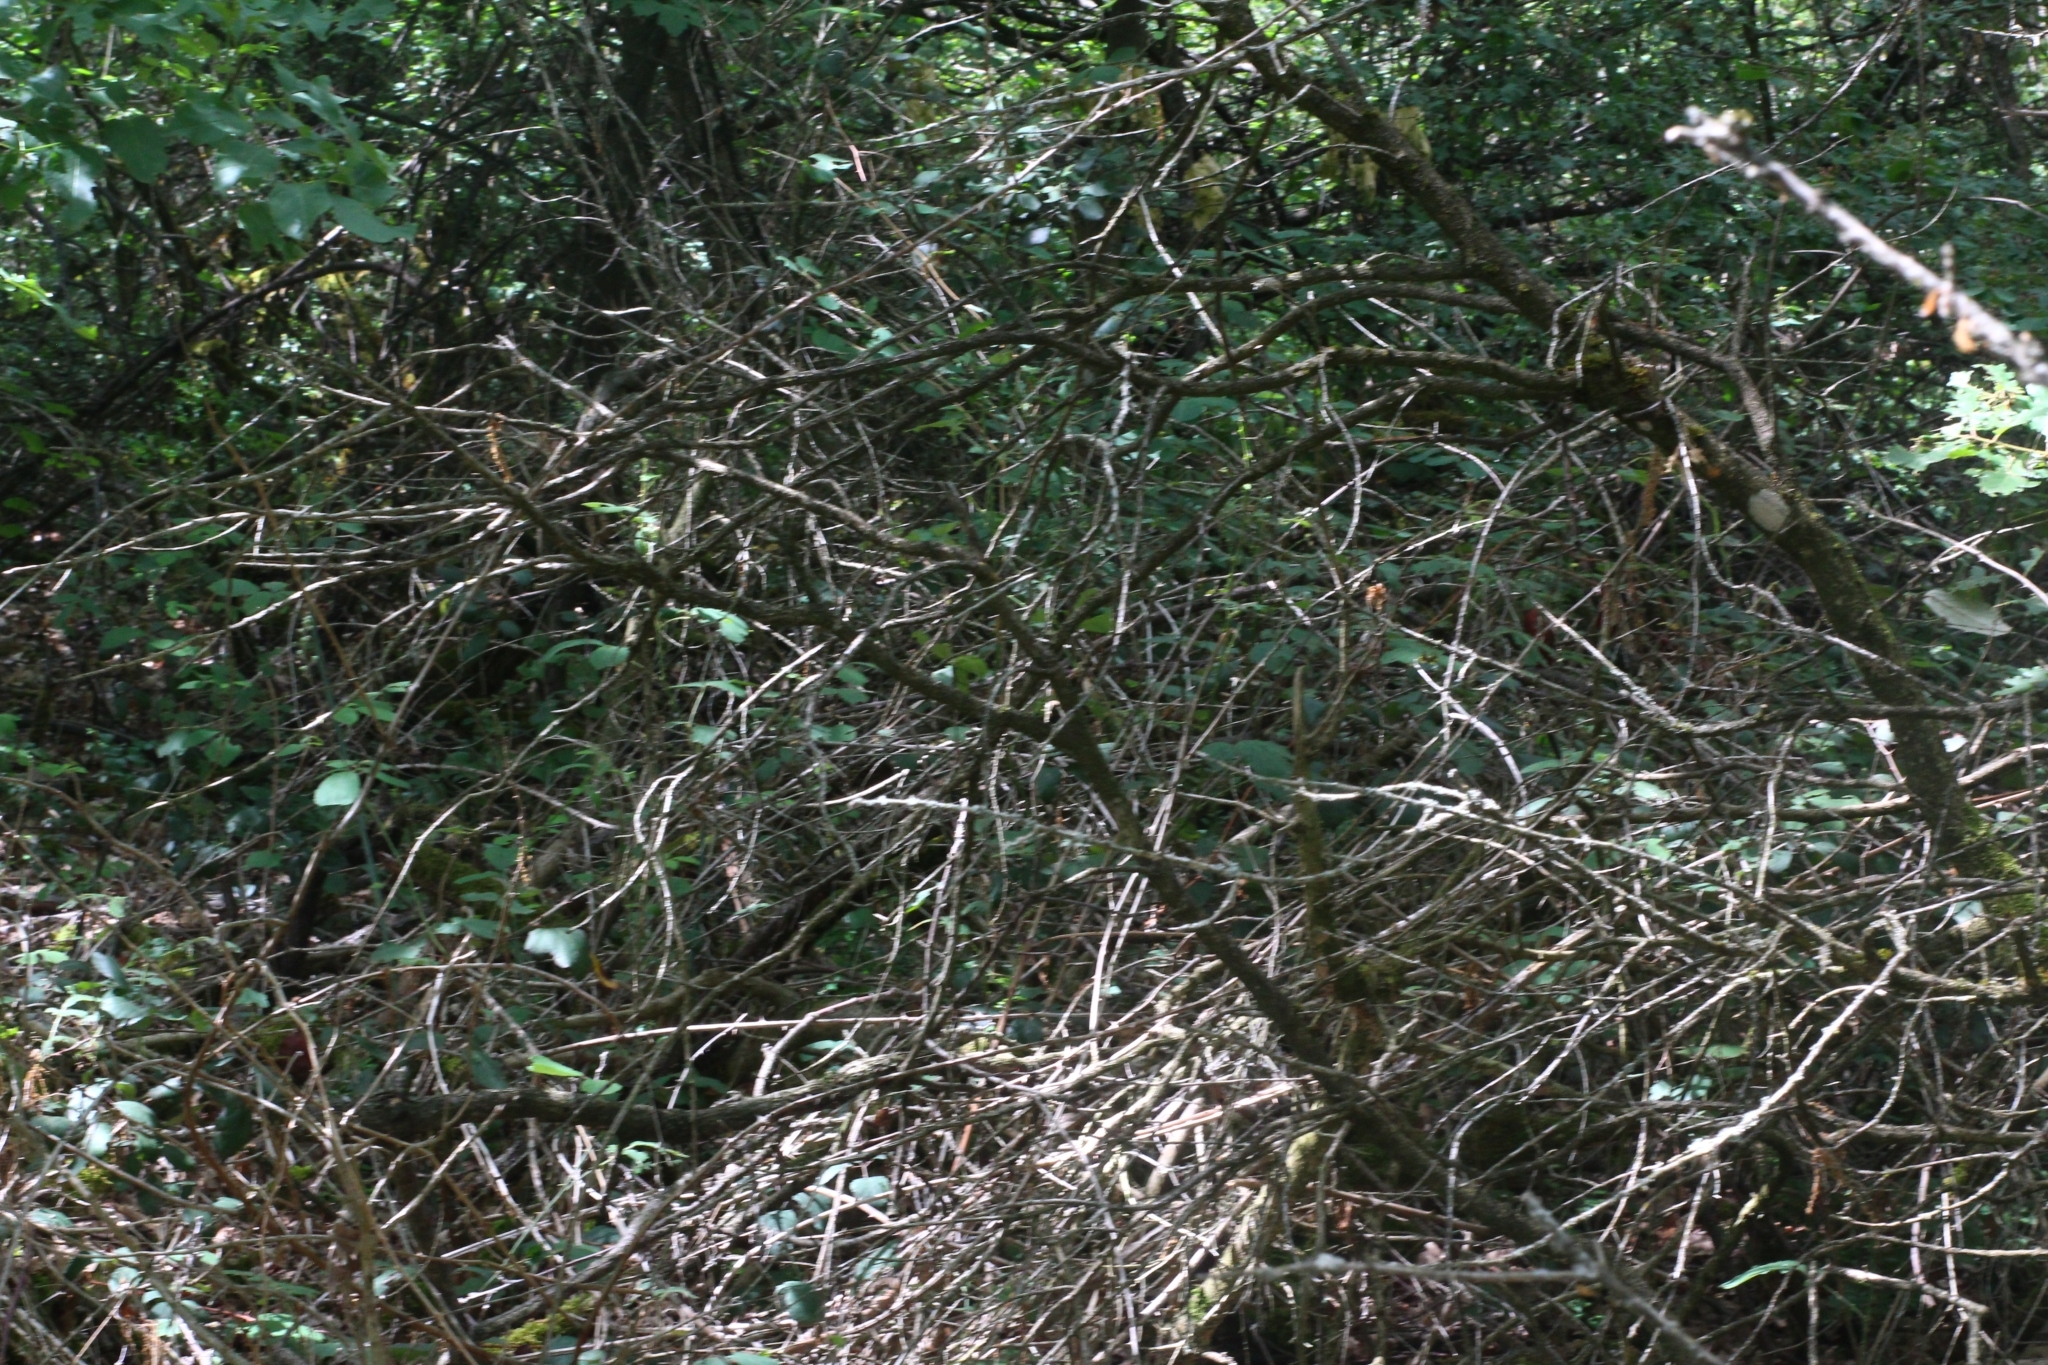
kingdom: Plantae
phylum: Tracheophyta
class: Magnoliopsida
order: Buxales
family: Buxaceae
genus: Buxus
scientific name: Buxus sempervirens
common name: Box
